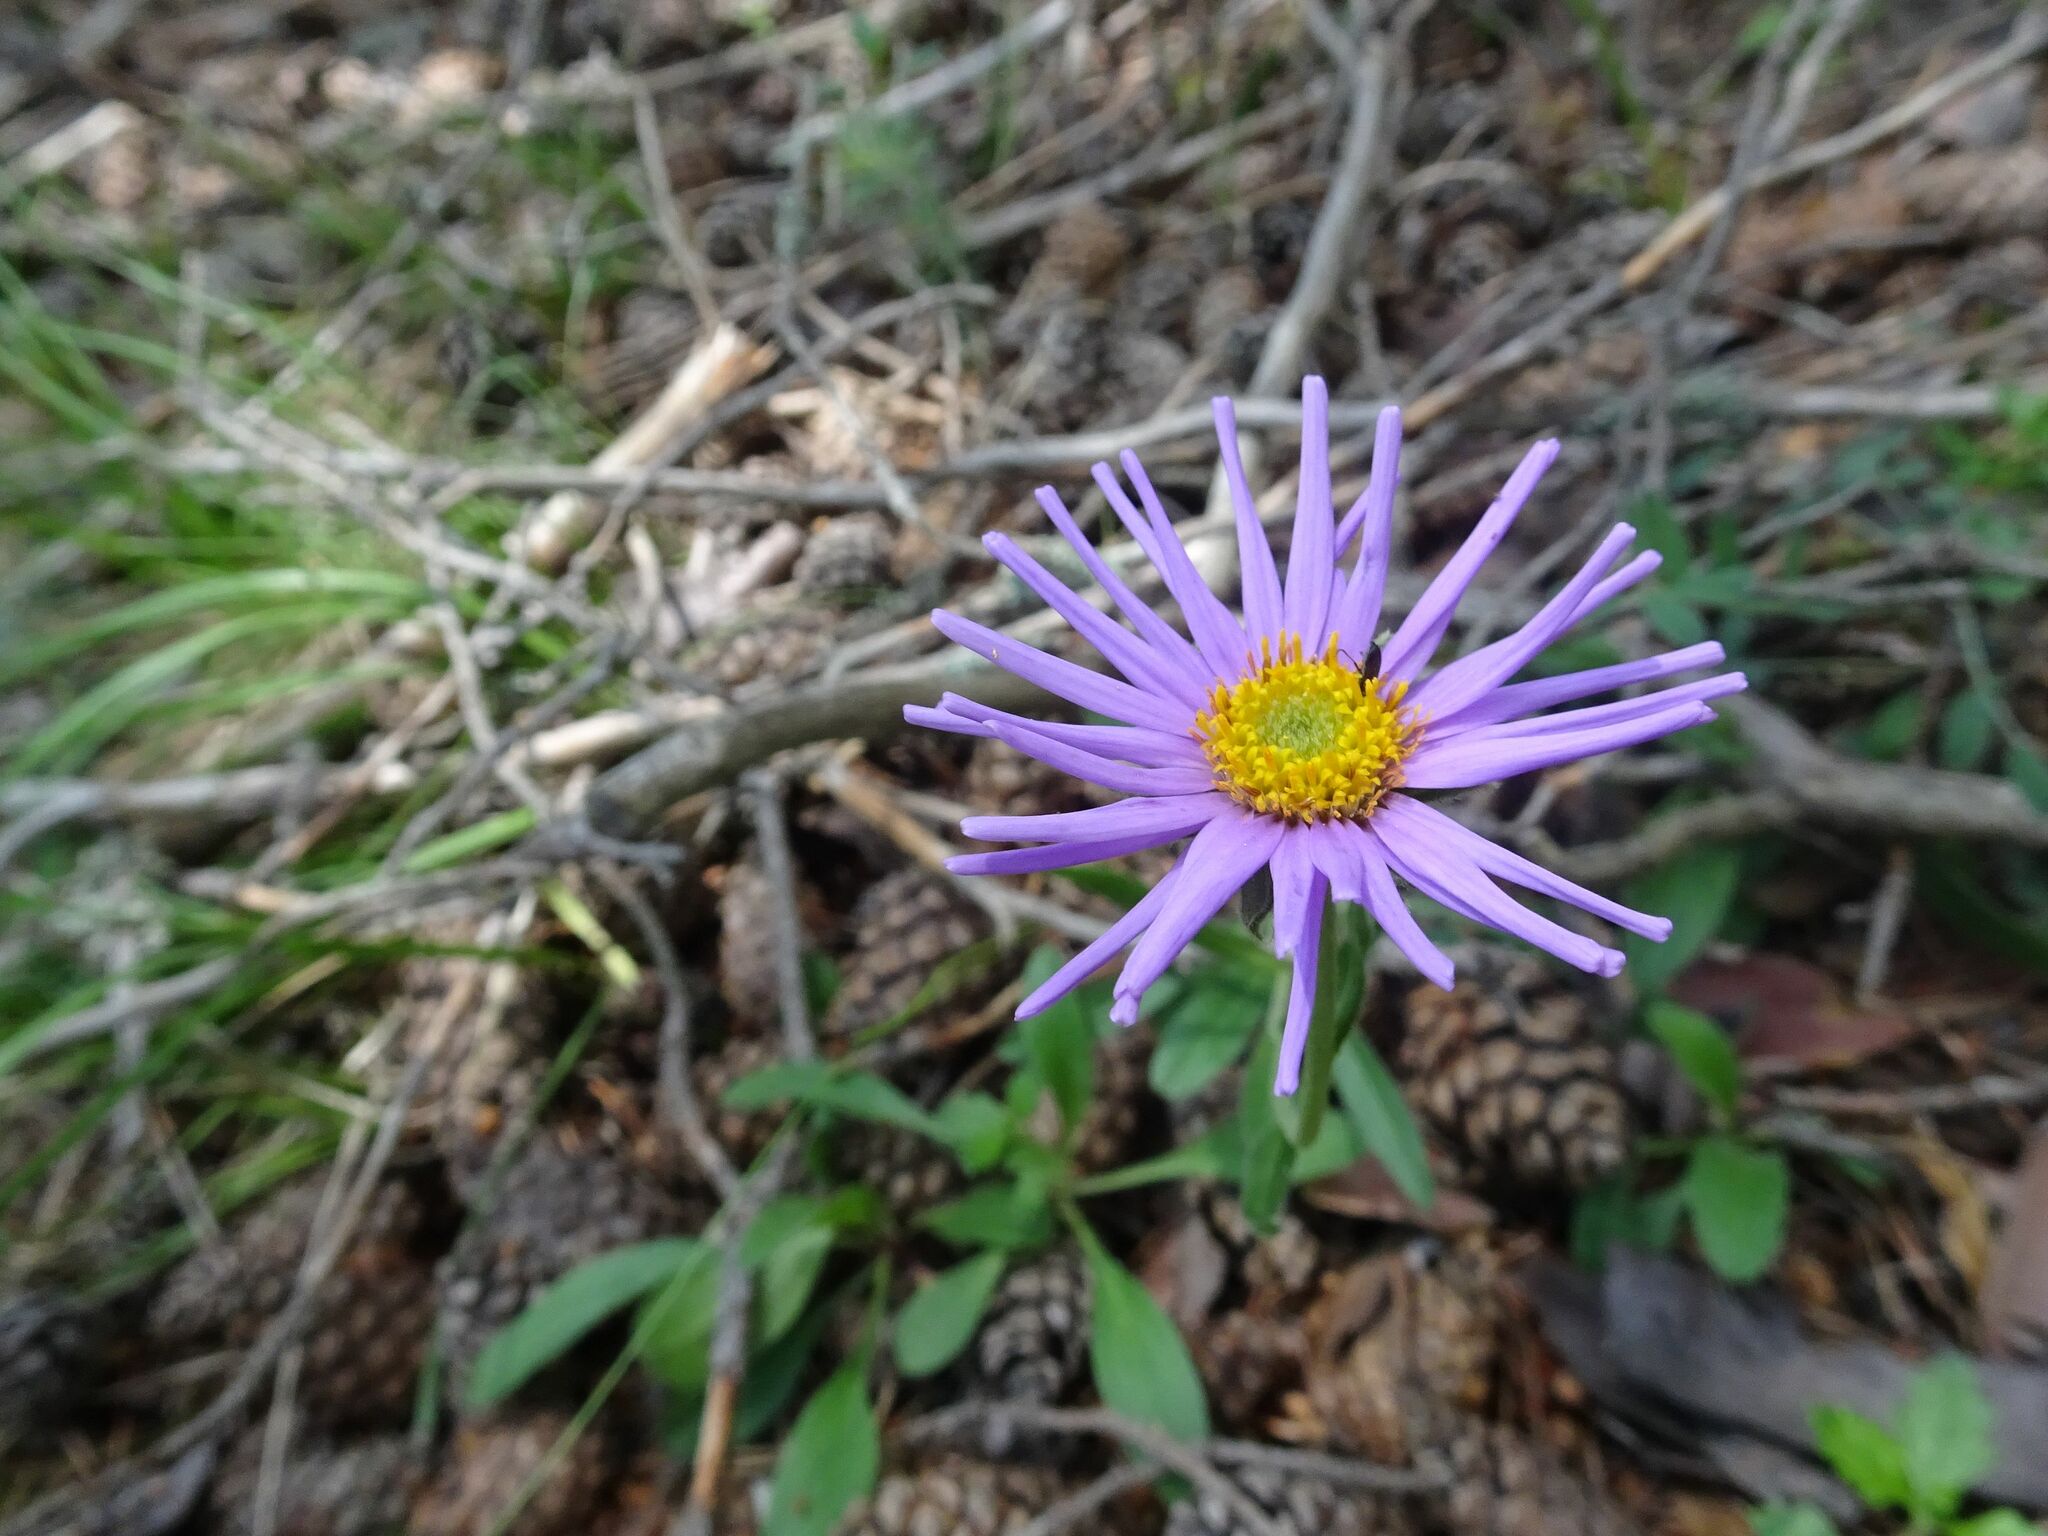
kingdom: Plantae
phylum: Tracheophyta
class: Magnoliopsida
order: Asterales
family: Asteraceae
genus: Aster
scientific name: Aster alpinus
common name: Alpine aster
